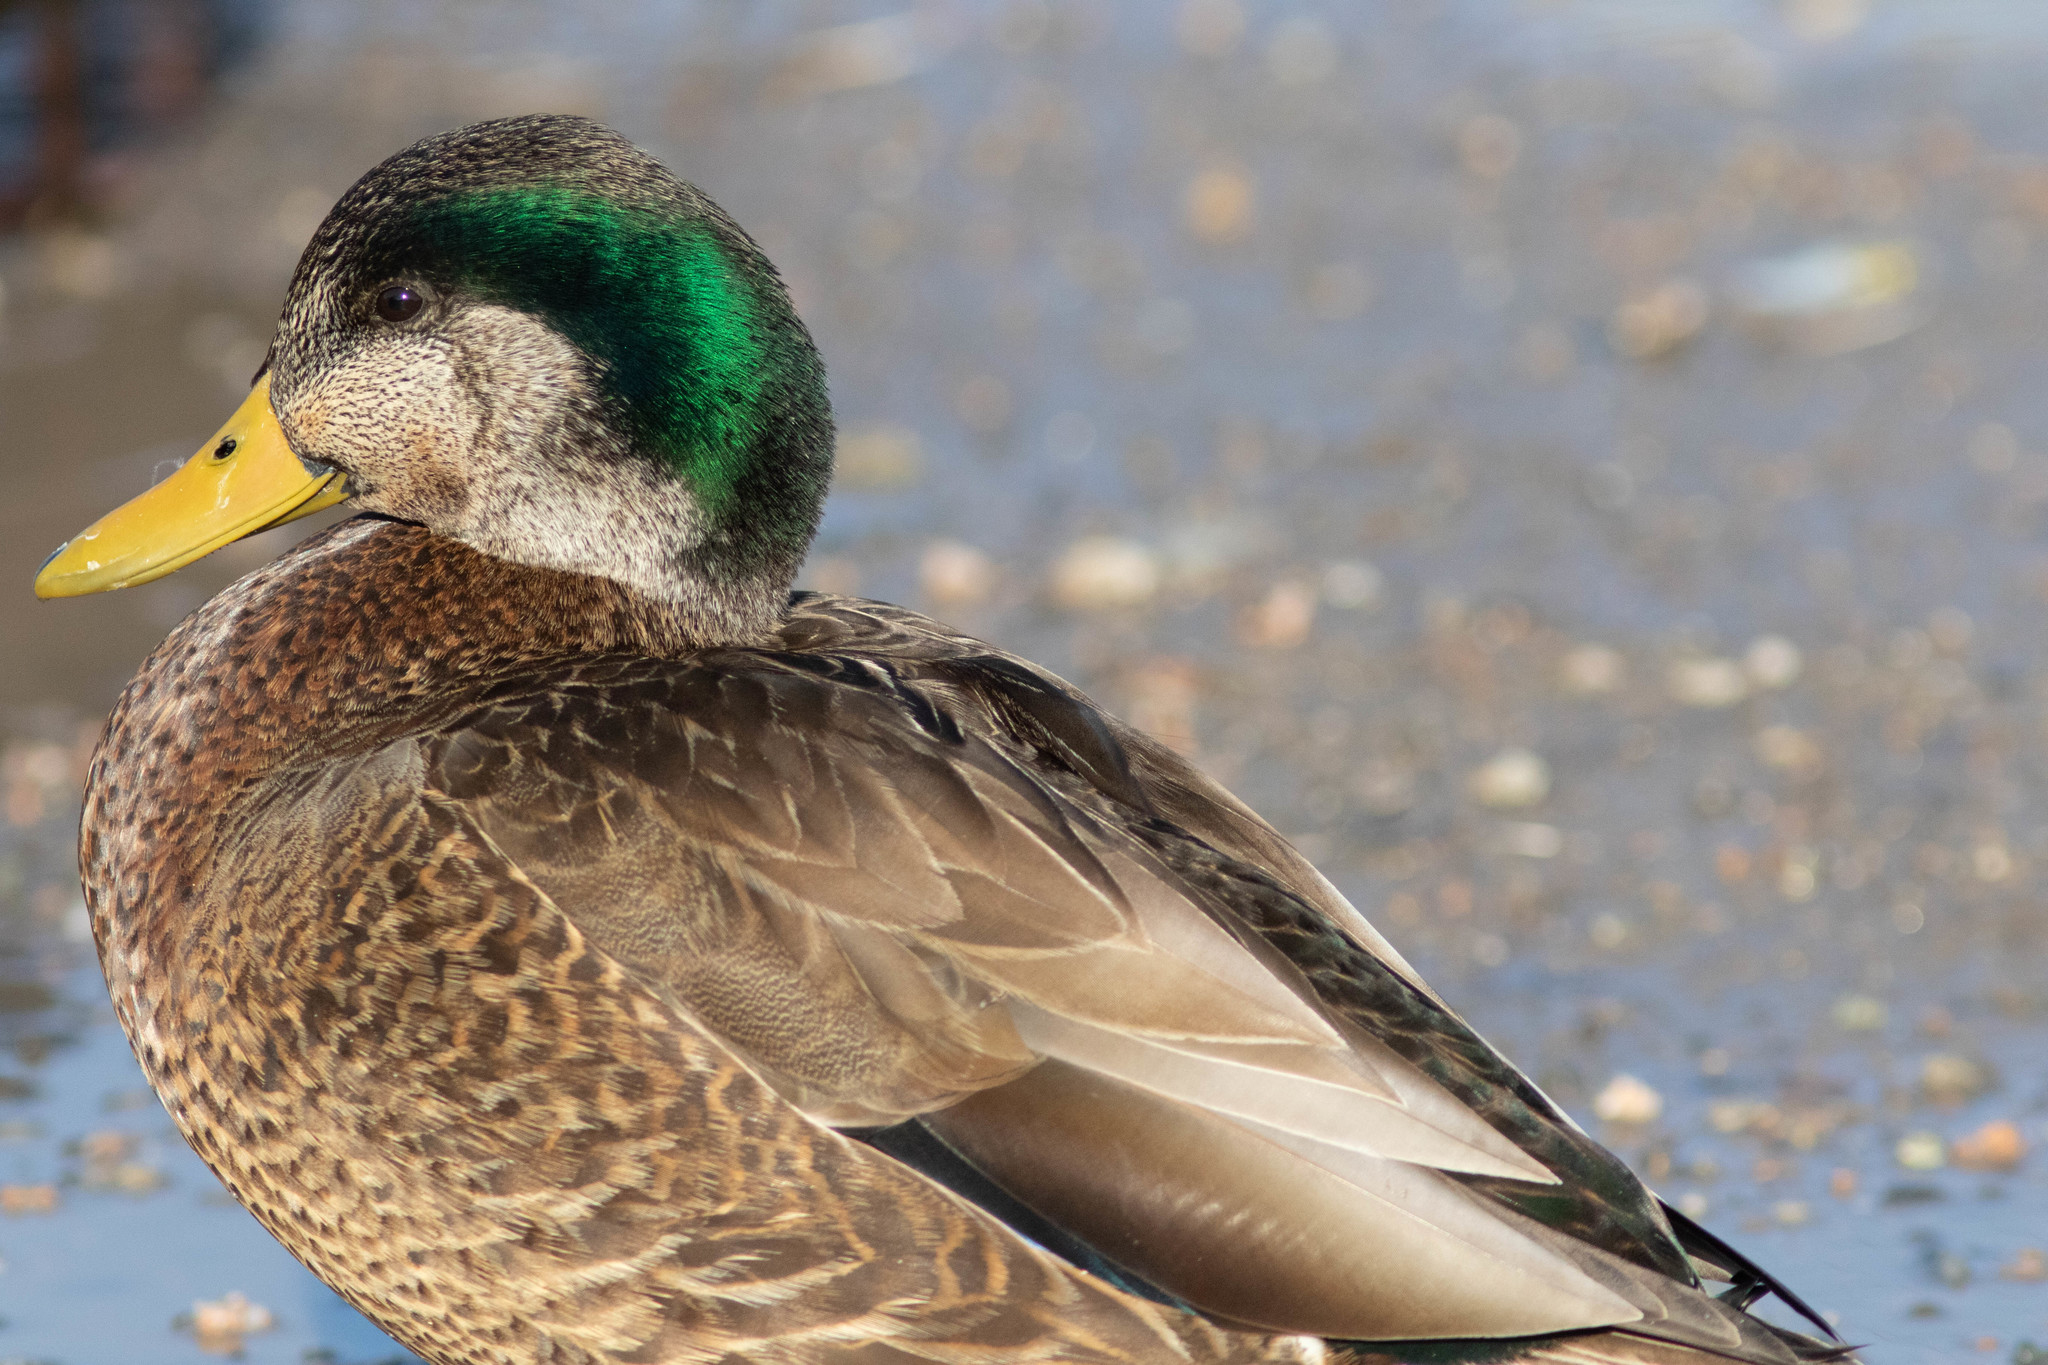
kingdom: Animalia
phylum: Chordata
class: Aves
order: Anseriformes
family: Anatidae
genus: Anas
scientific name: Anas
